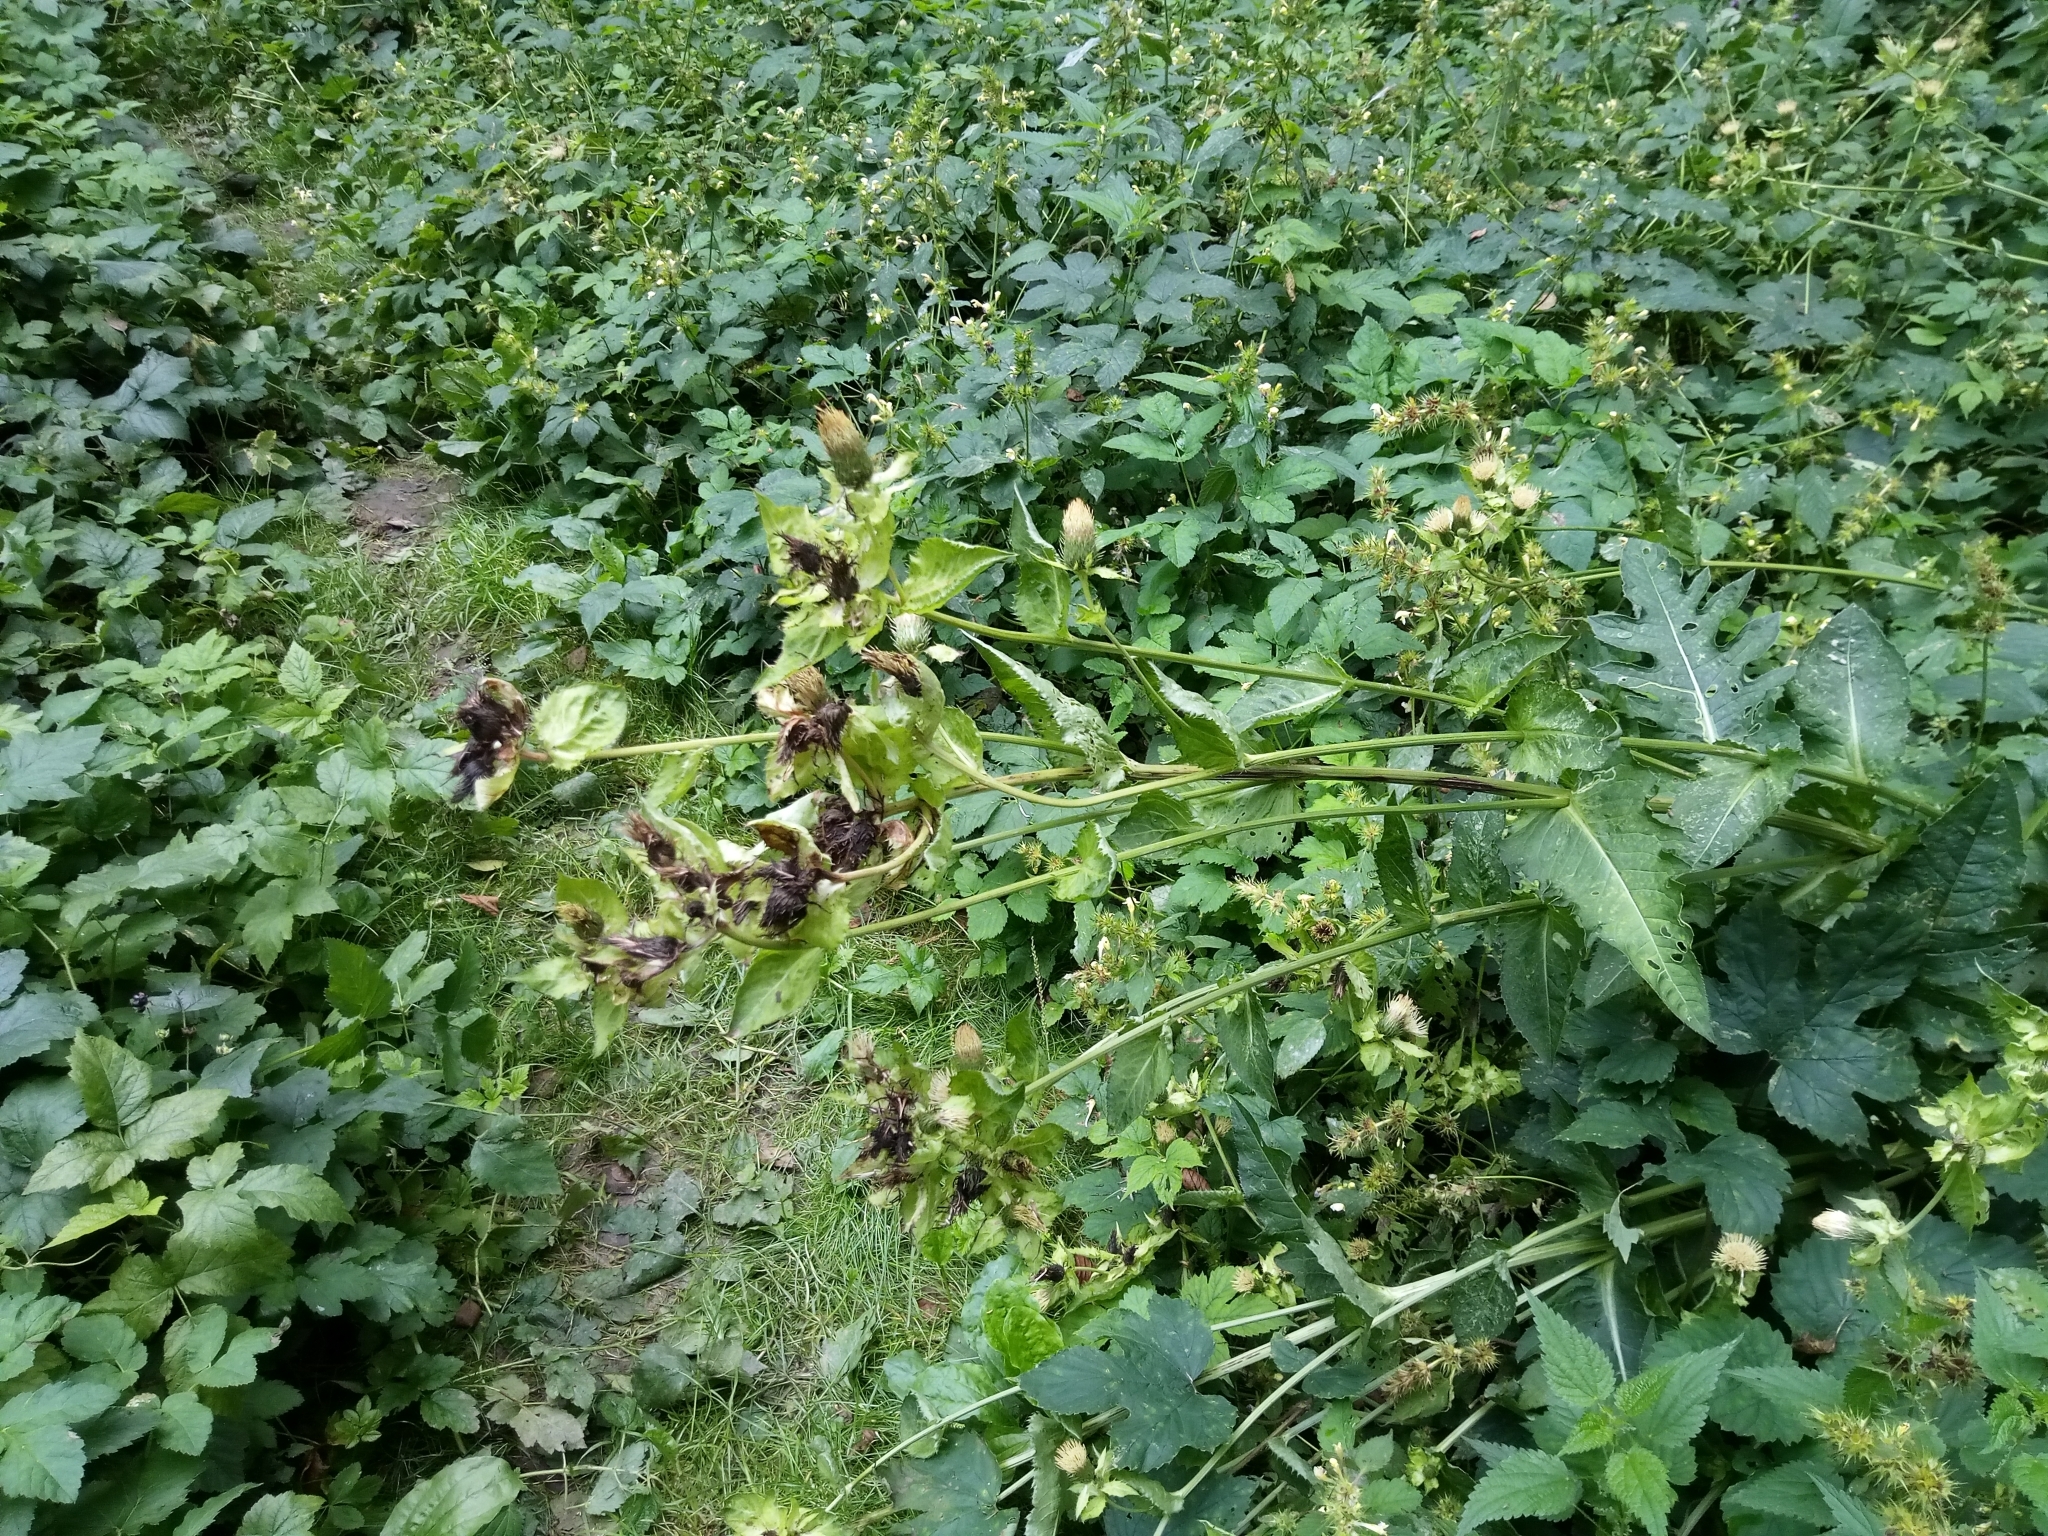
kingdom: Plantae
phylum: Tracheophyta
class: Magnoliopsida
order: Asterales
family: Asteraceae
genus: Cirsium
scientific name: Cirsium oleraceum
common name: Cabbage thistle
